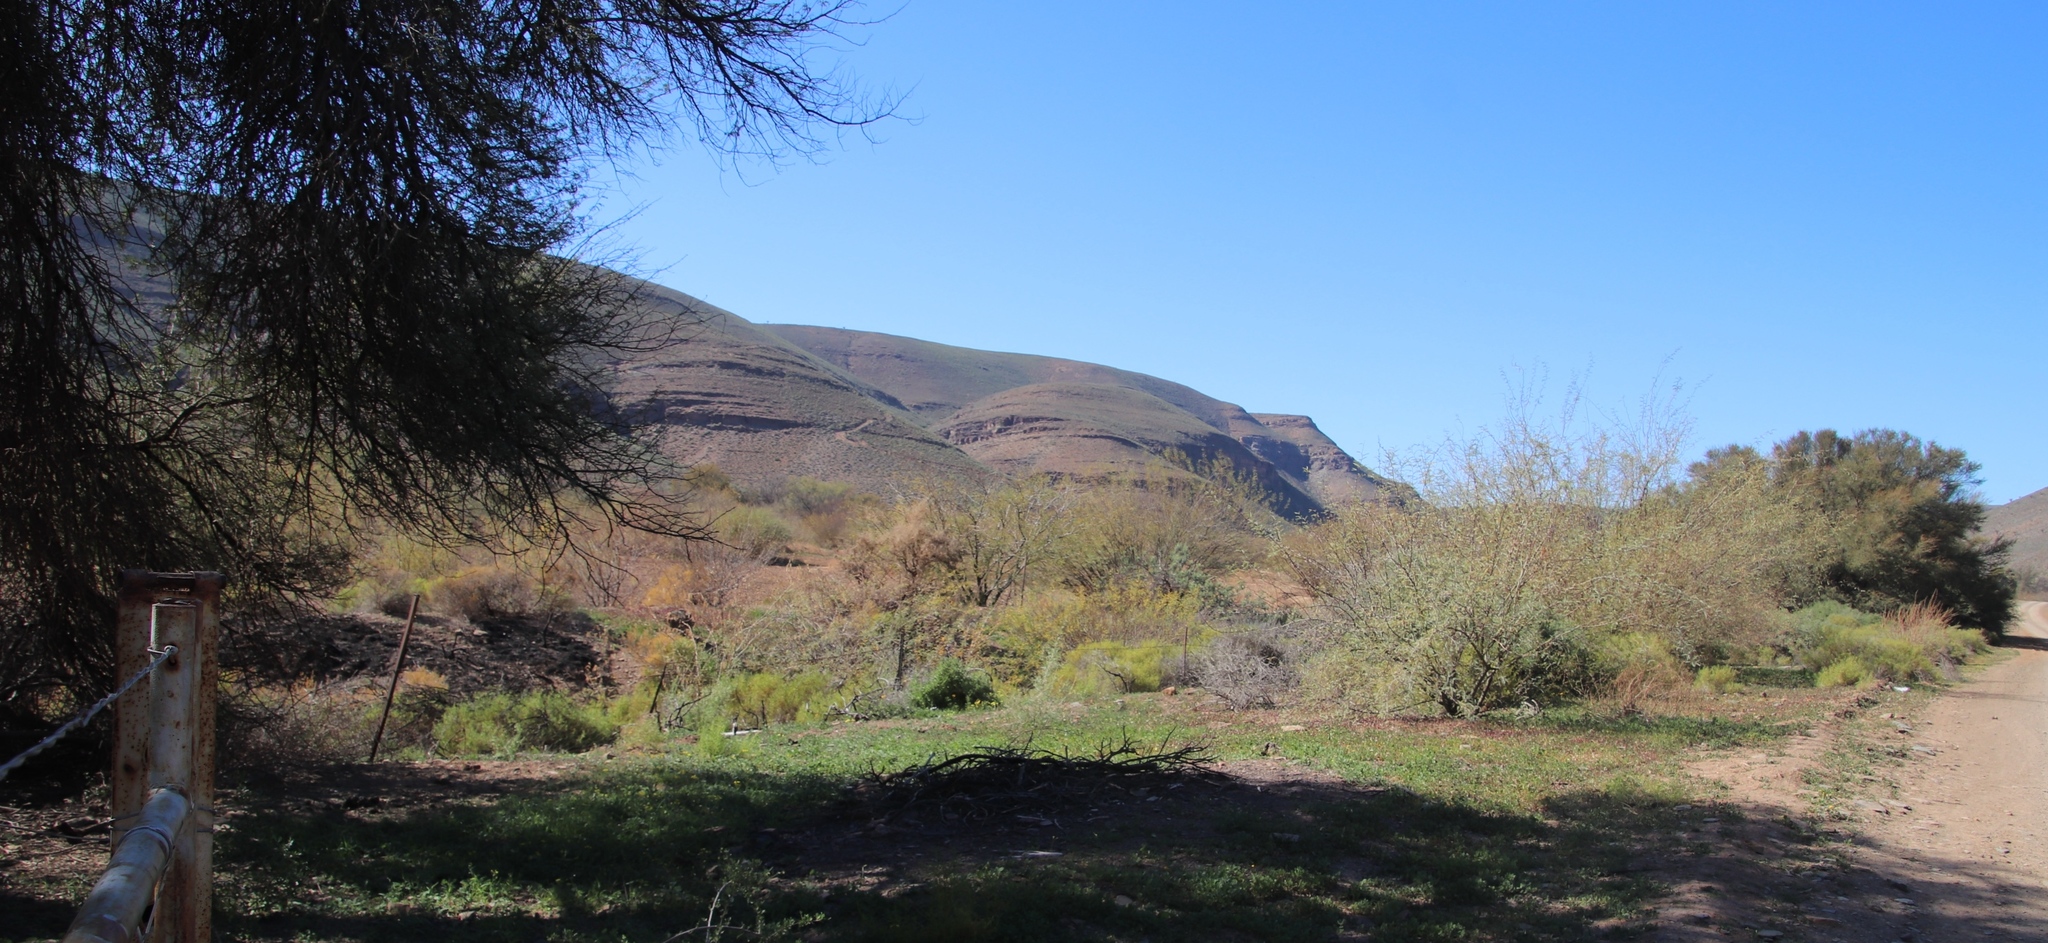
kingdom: Plantae
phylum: Tracheophyta
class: Magnoliopsida
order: Fabales
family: Fabaceae
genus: Prosopis
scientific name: Prosopis pubescens
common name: Screw-bean
